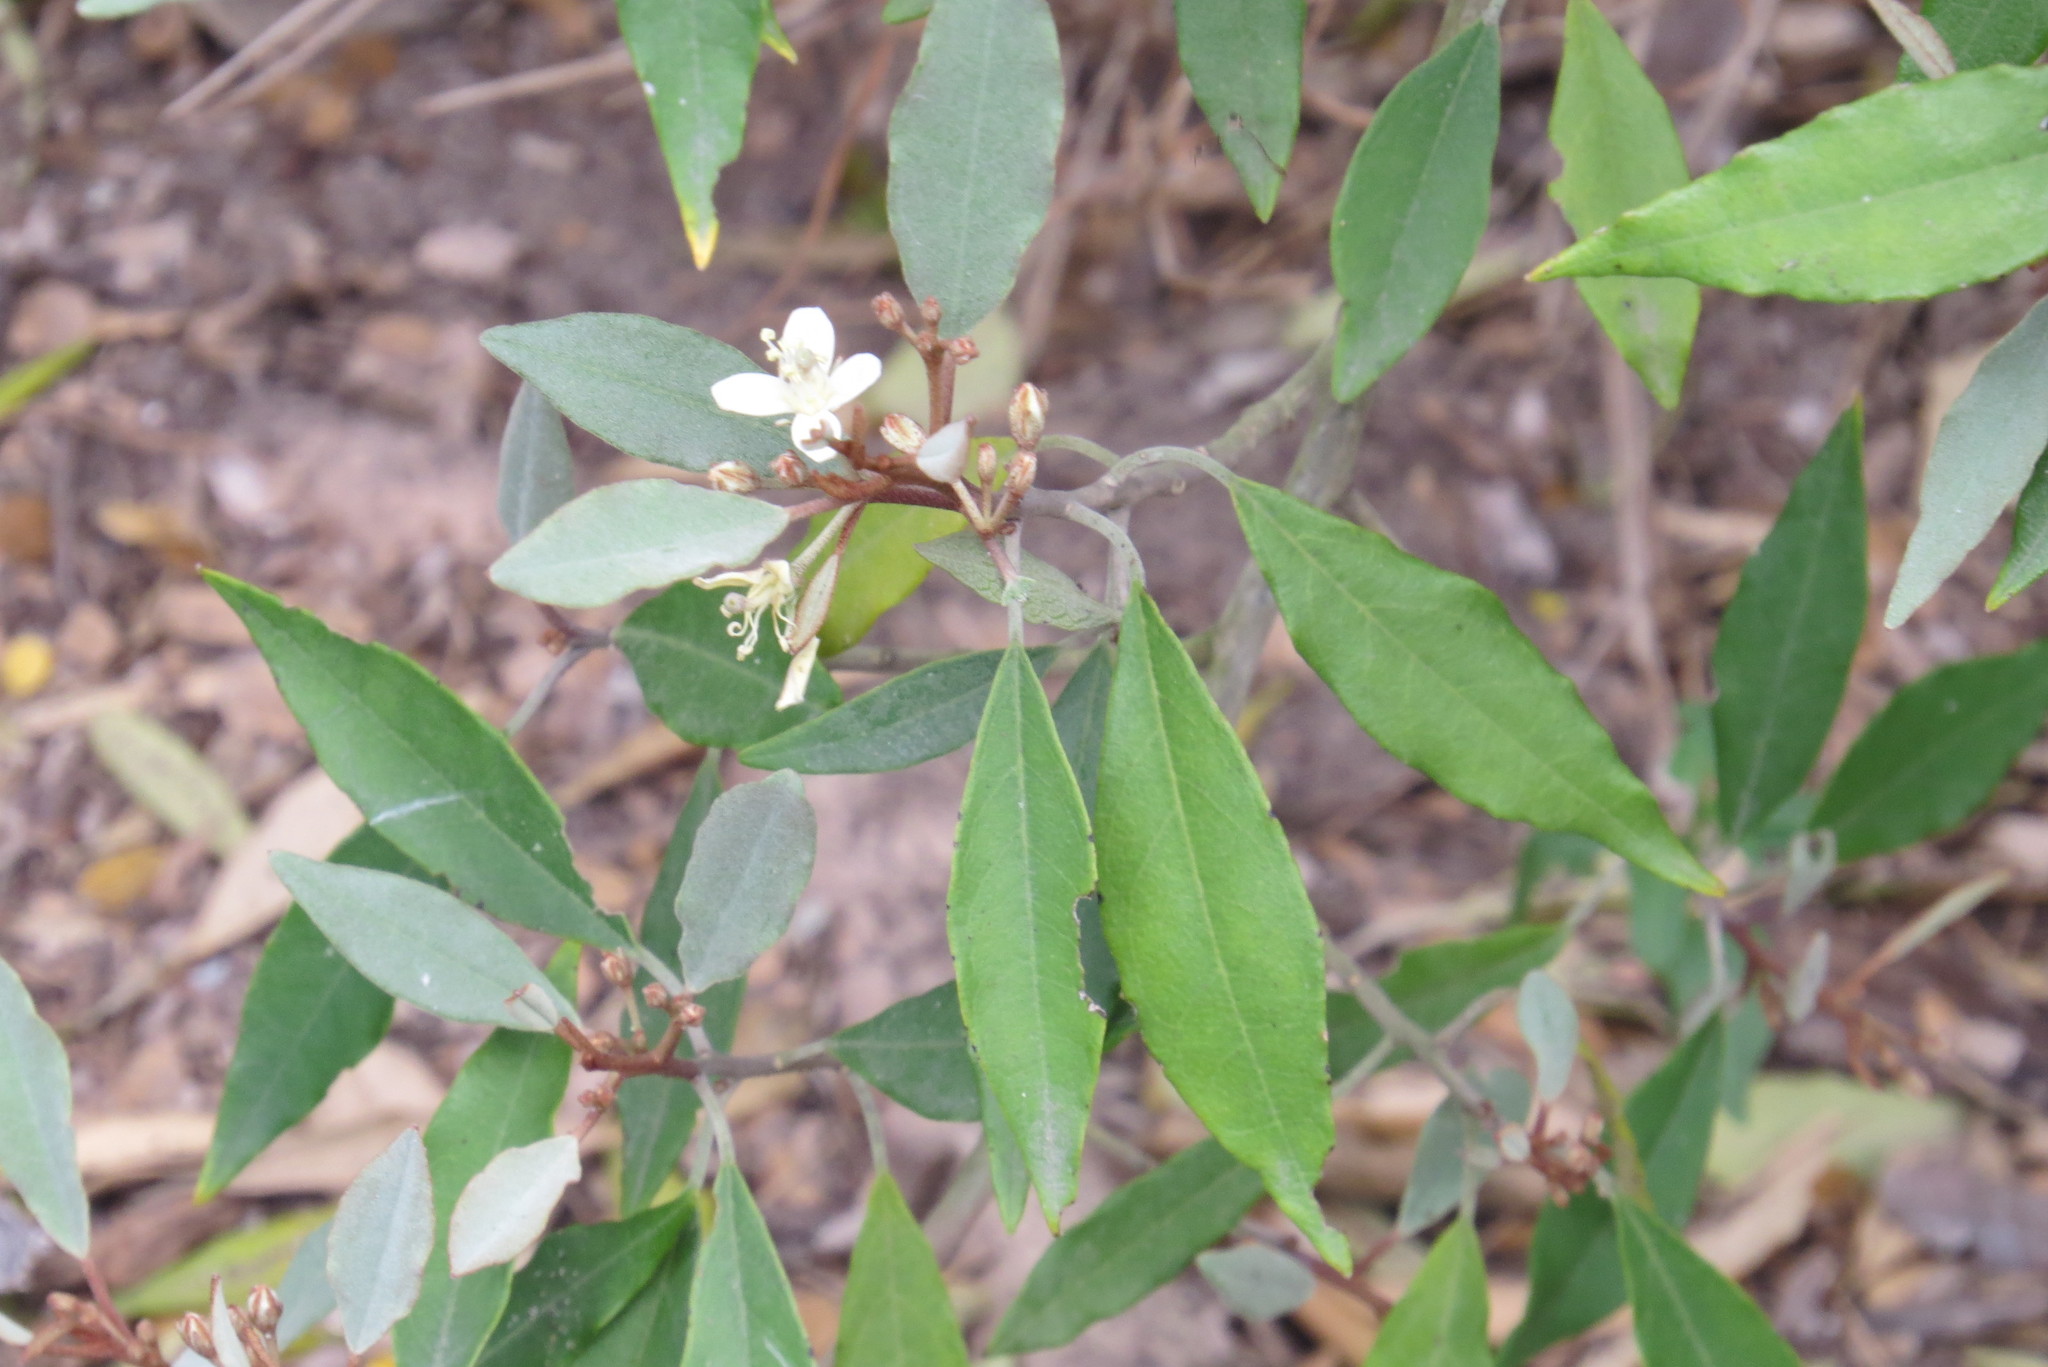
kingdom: Plantae
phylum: Tracheophyta
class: Magnoliopsida
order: Brassicales
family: Capparaceae
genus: Quadrella
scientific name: Quadrella incana
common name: Hoary caper
